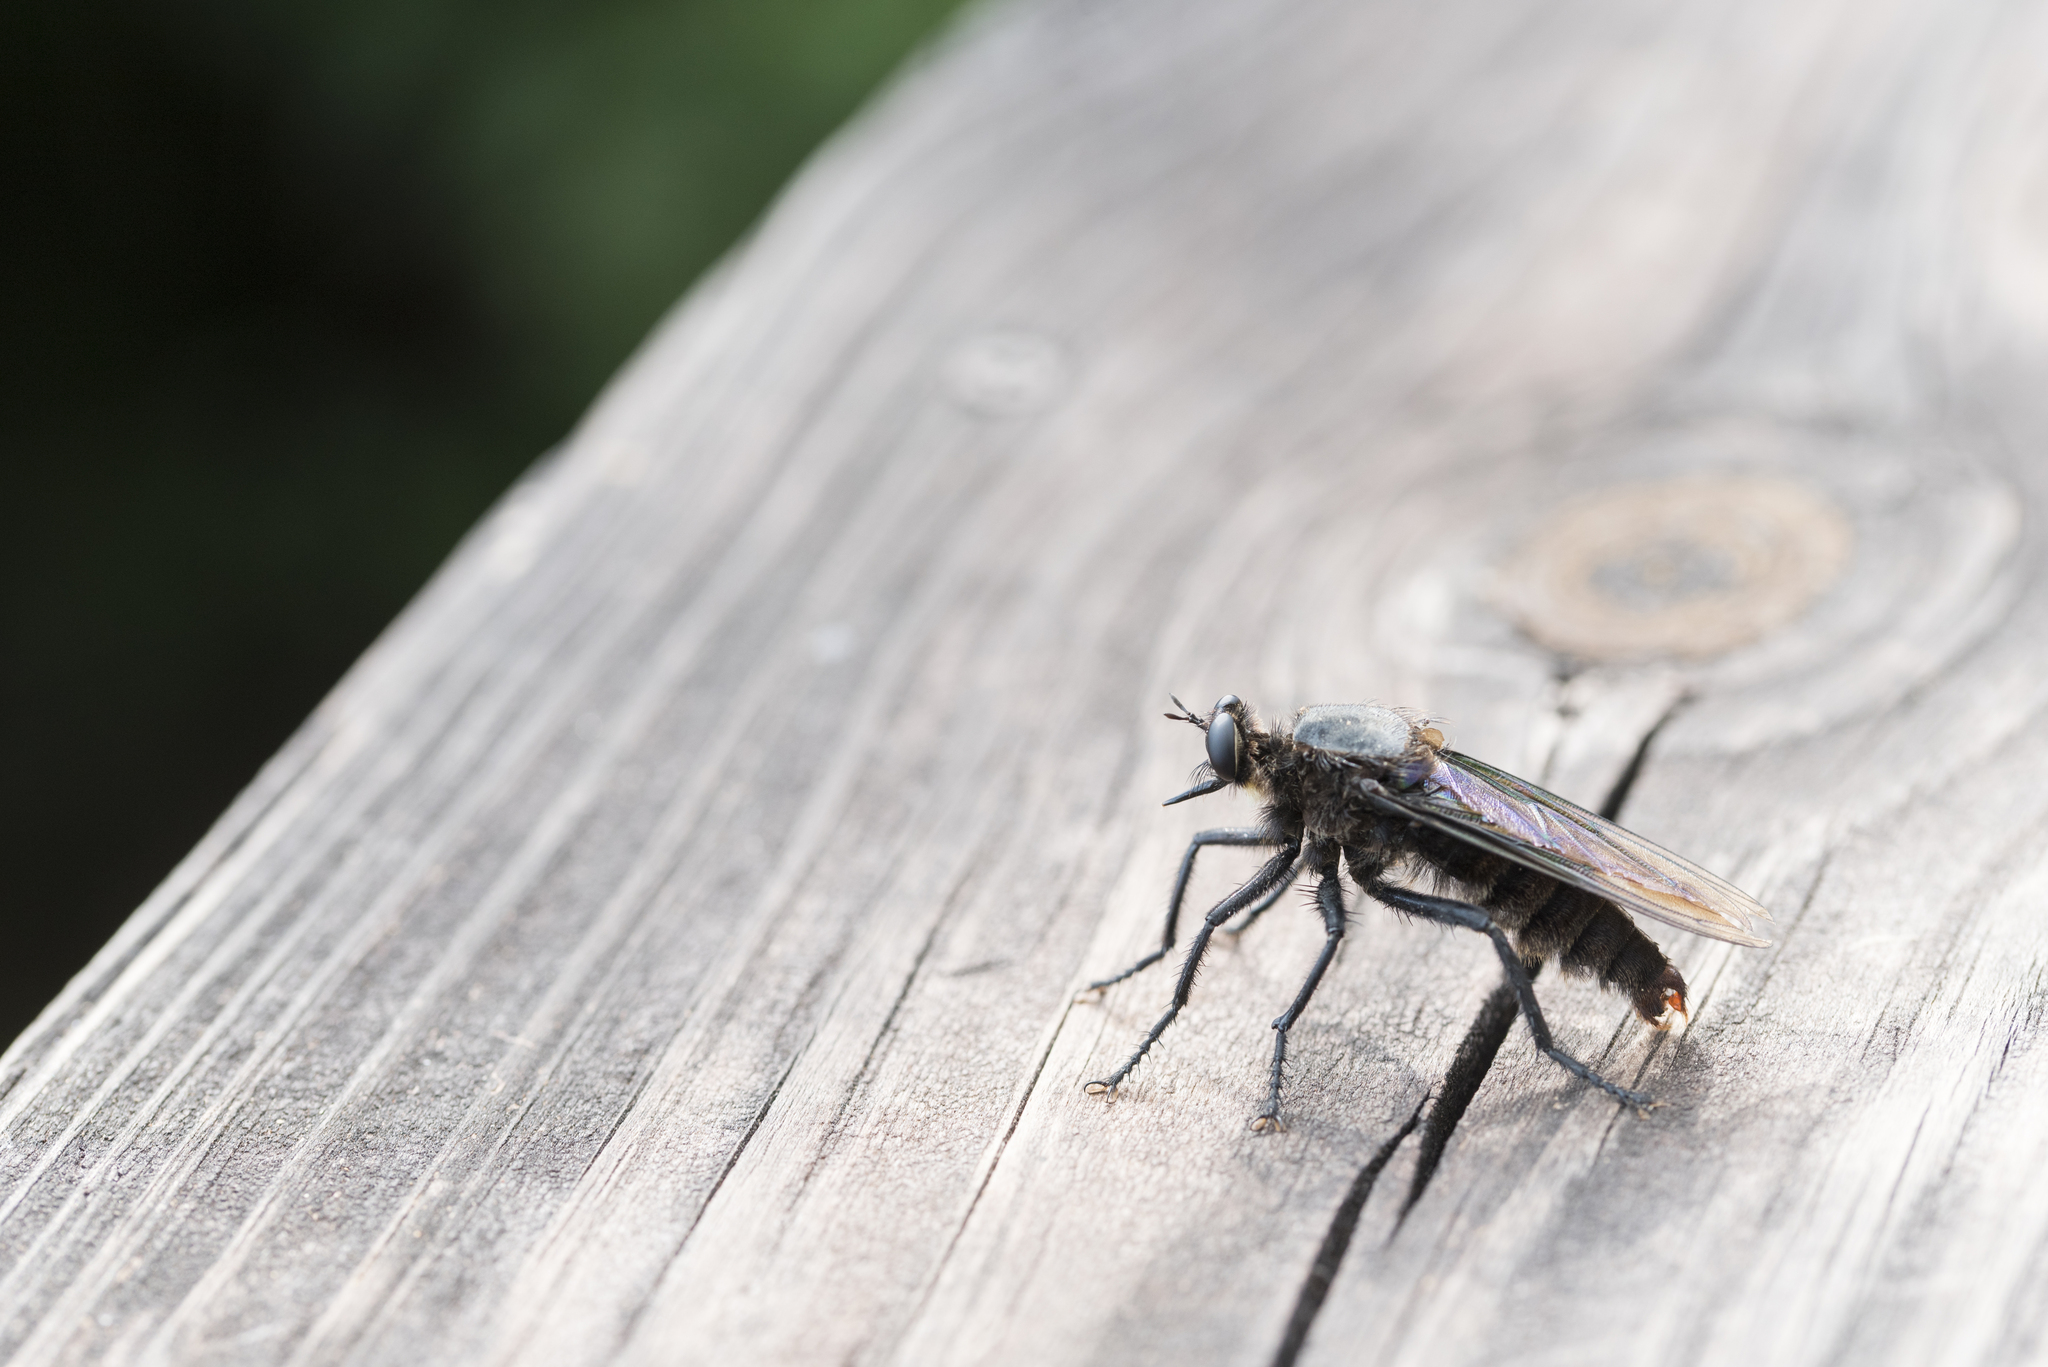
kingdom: Animalia
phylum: Arthropoda
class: Insecta
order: Diptera
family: Asilidae
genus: Microstylum
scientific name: Microstylum oberthurii
